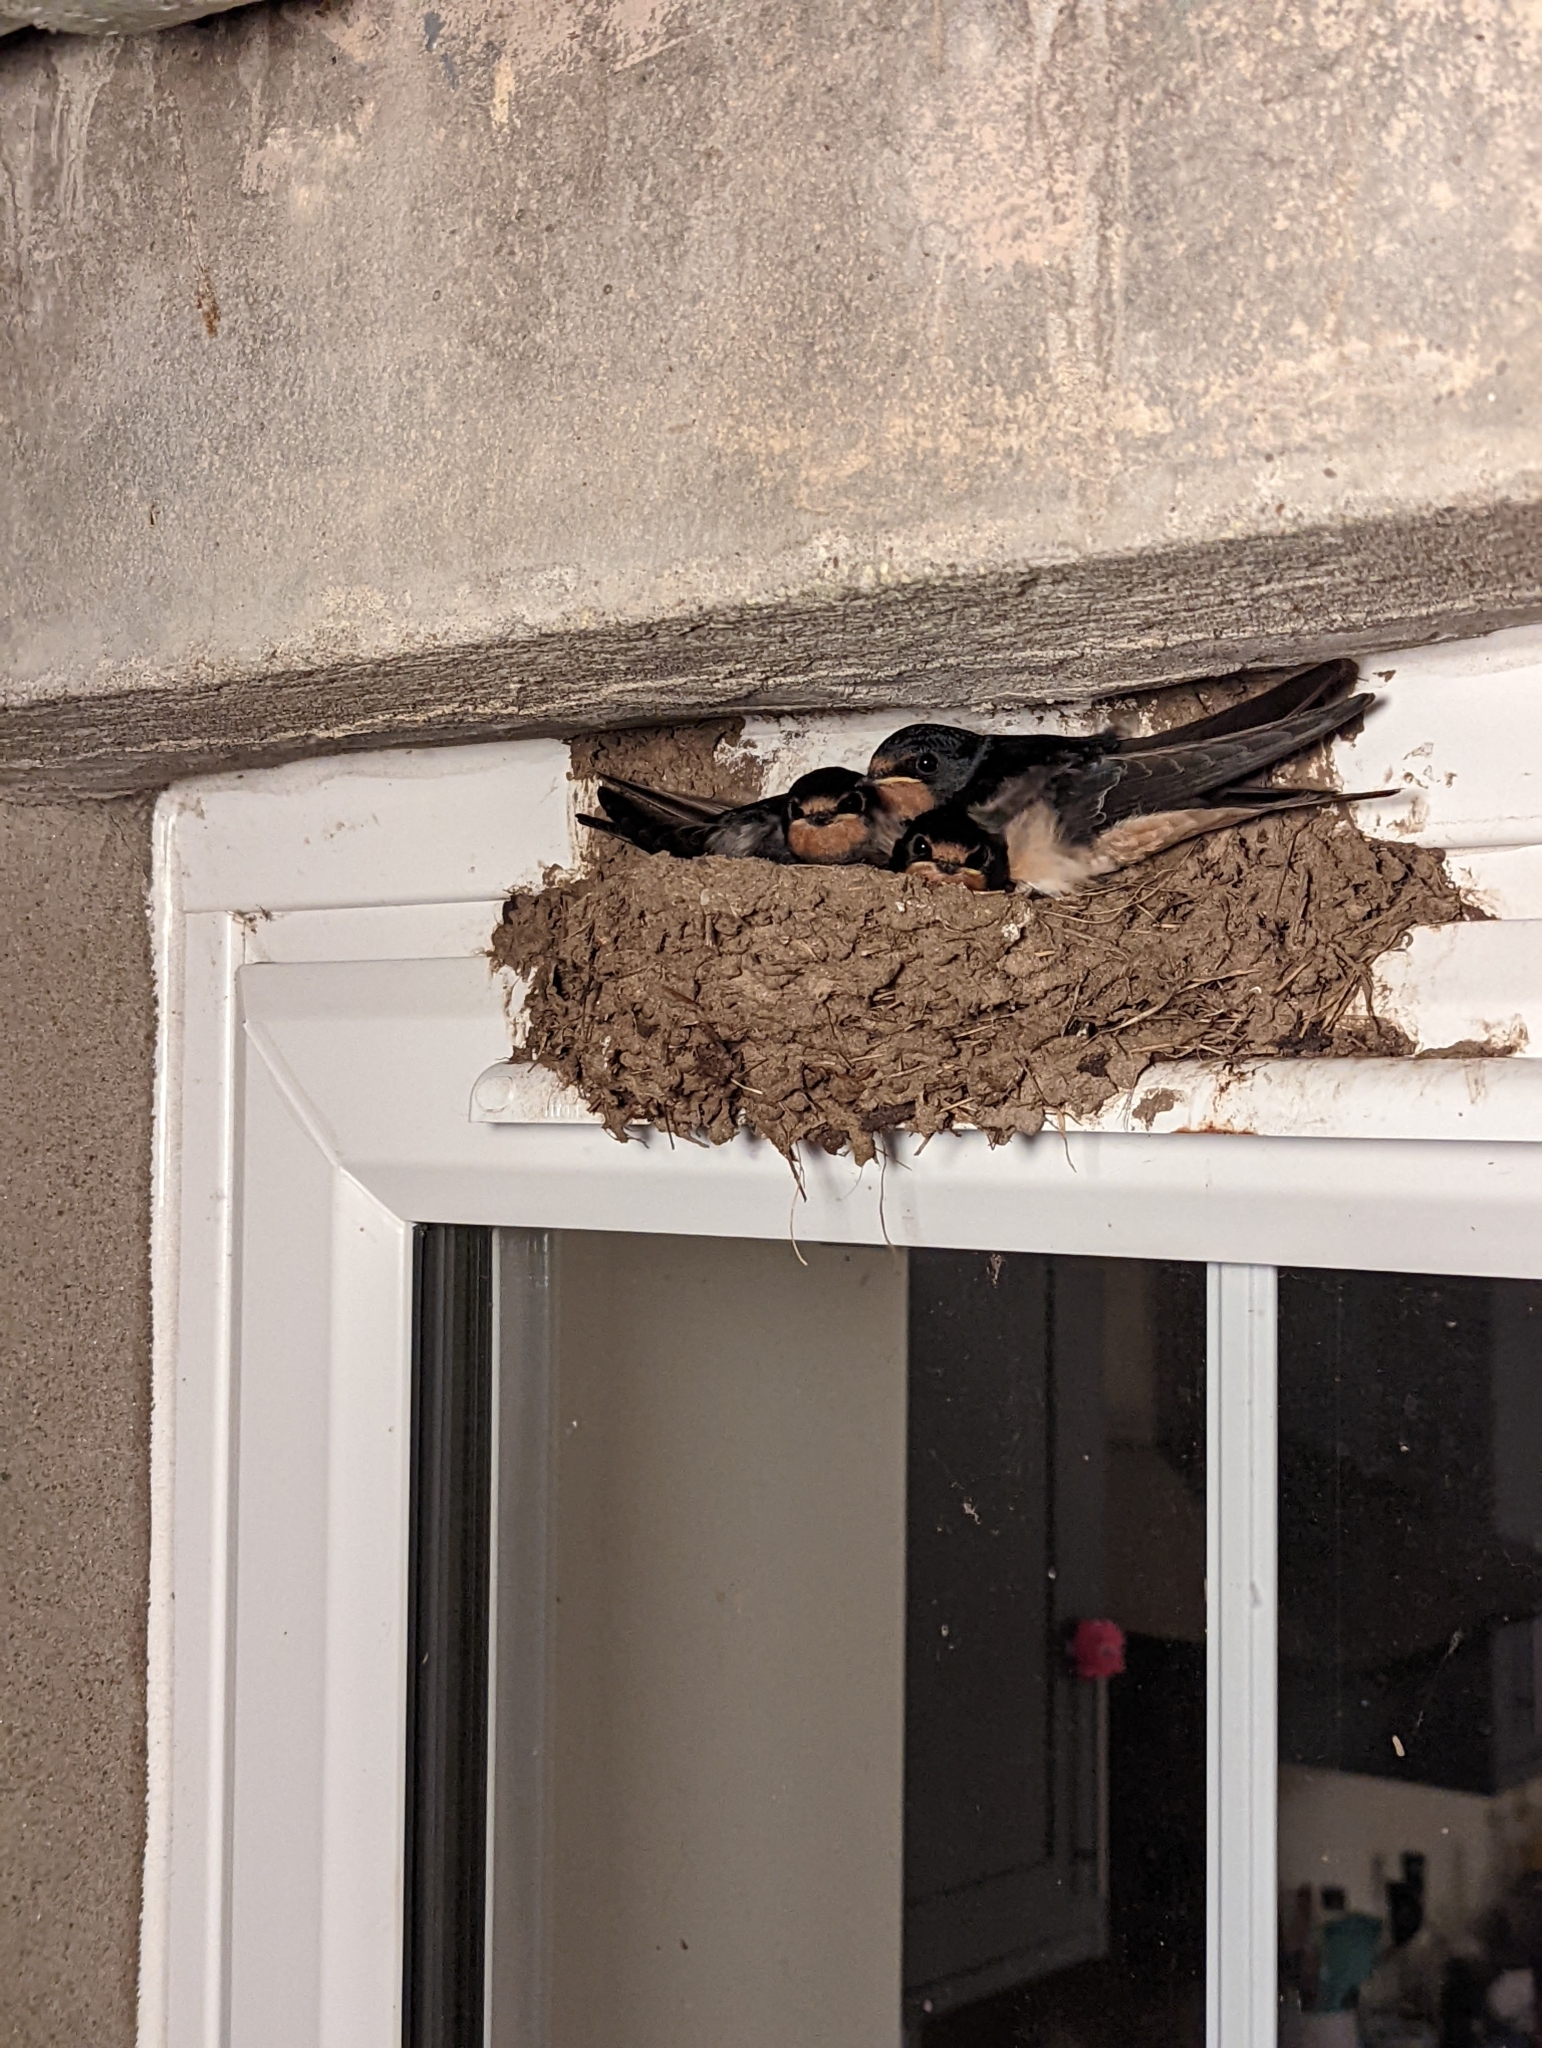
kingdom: Animalia
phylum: Chordata
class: Aves
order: Passeriformes
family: Hirundinidae
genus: Hirundo
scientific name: Hirundo rustica
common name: Barn swallow
